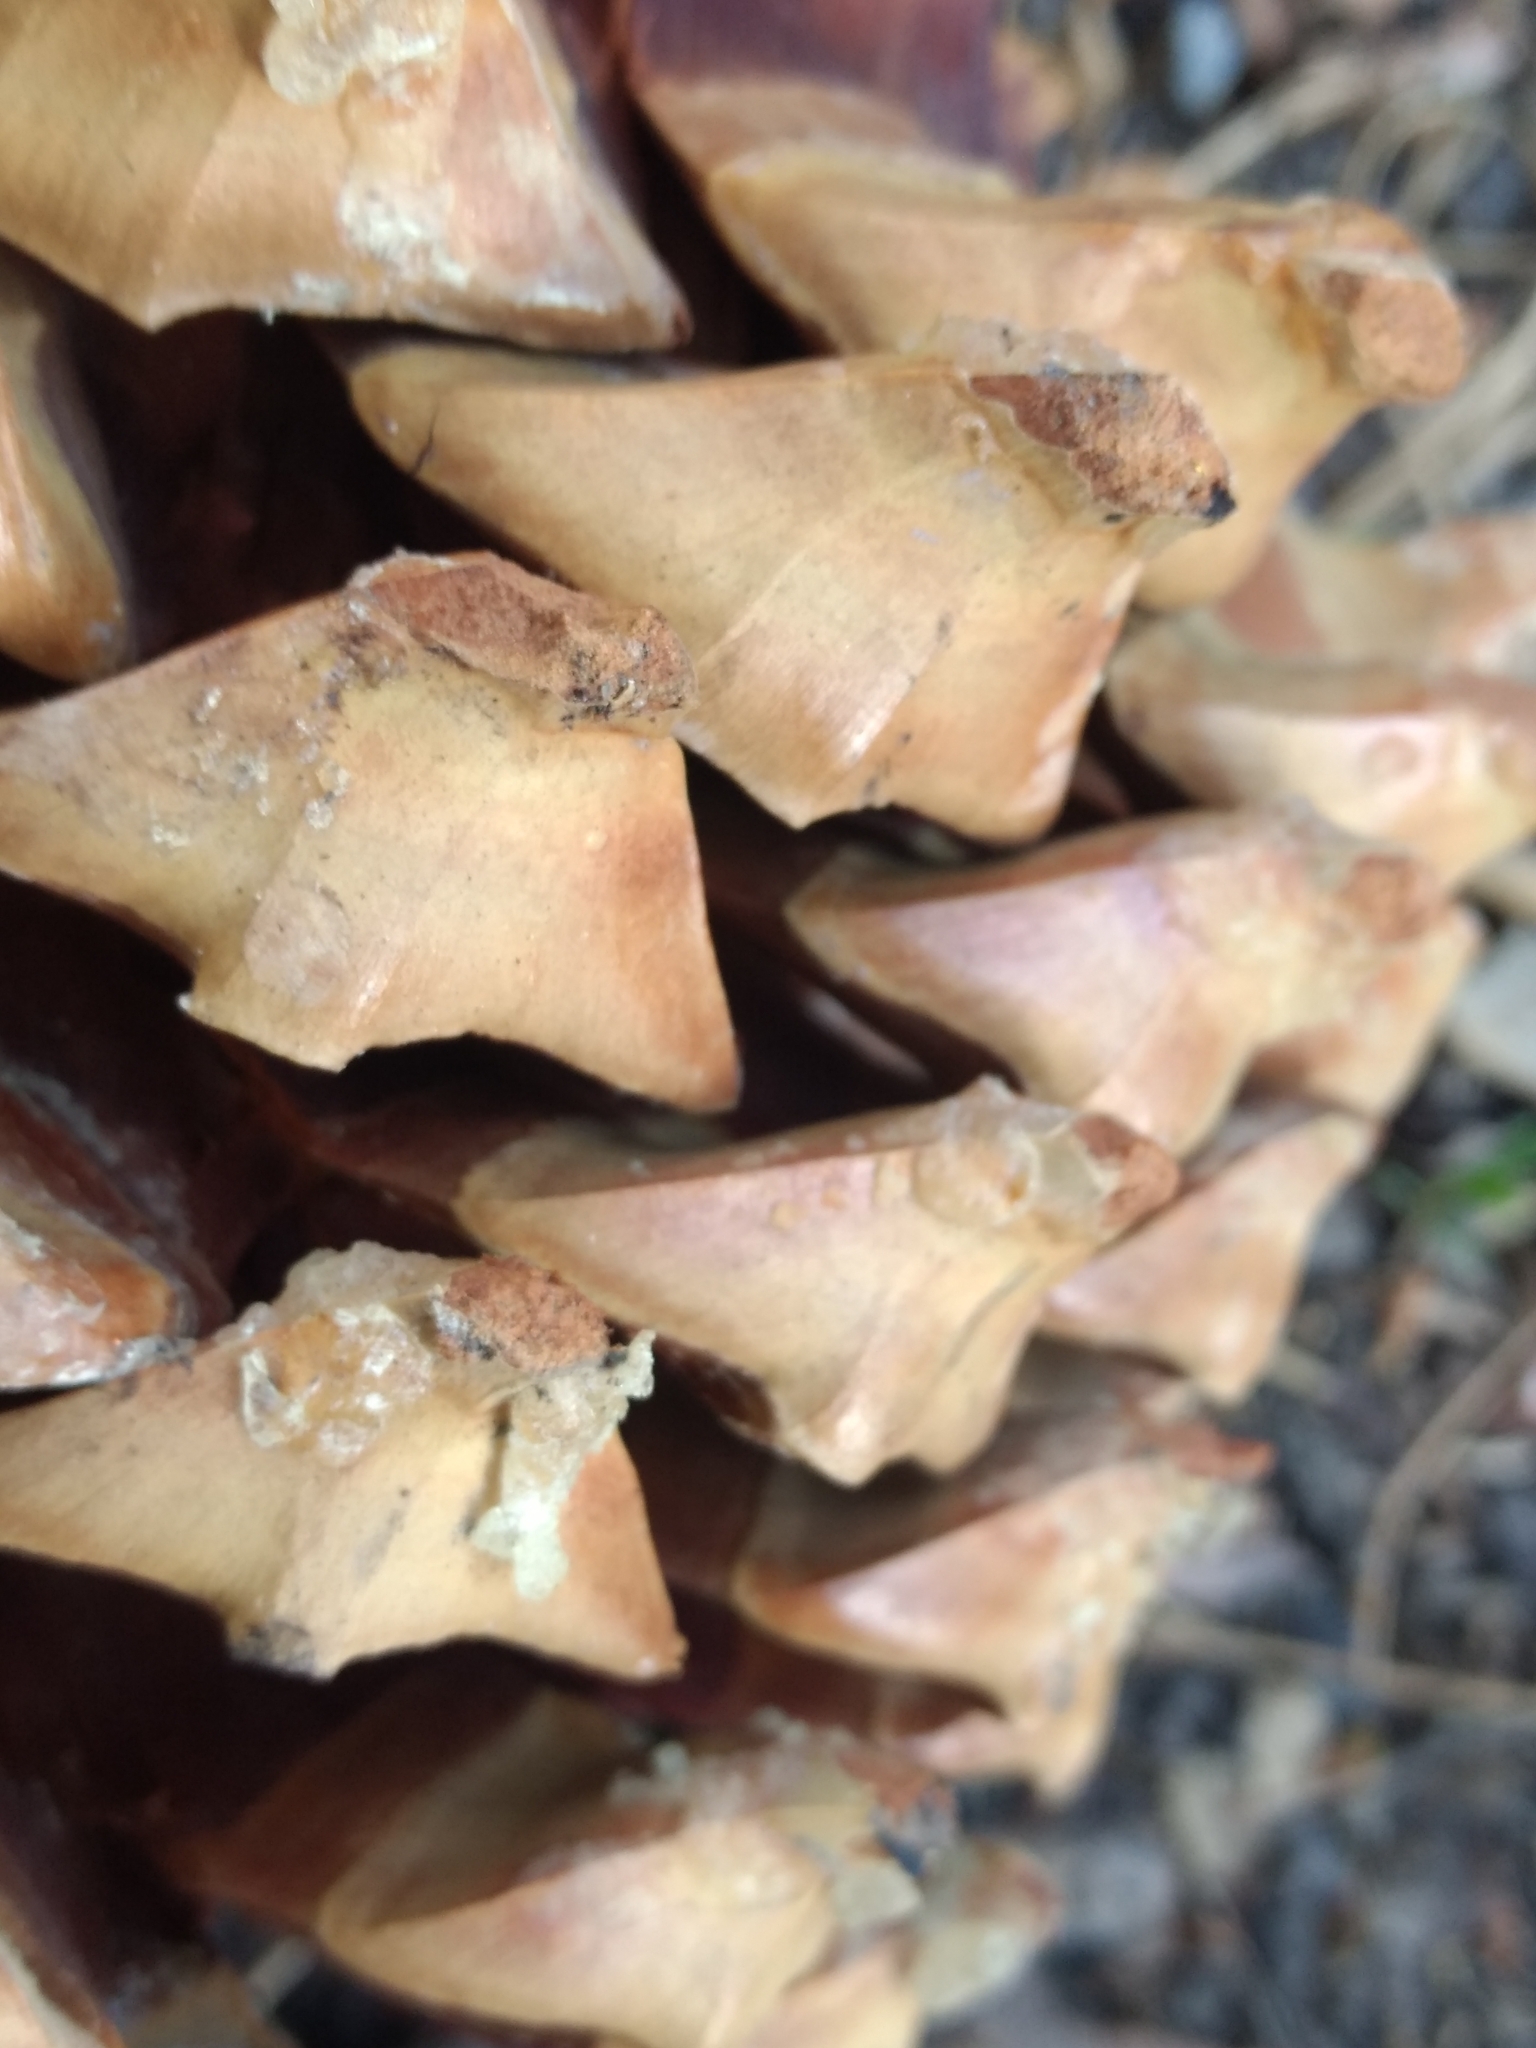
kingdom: Plantae
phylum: Tracheophyta
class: Pinopsida
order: Pinales
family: Pinaceae
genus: Pinus
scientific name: Pinus coulteri
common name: Coulter pine
